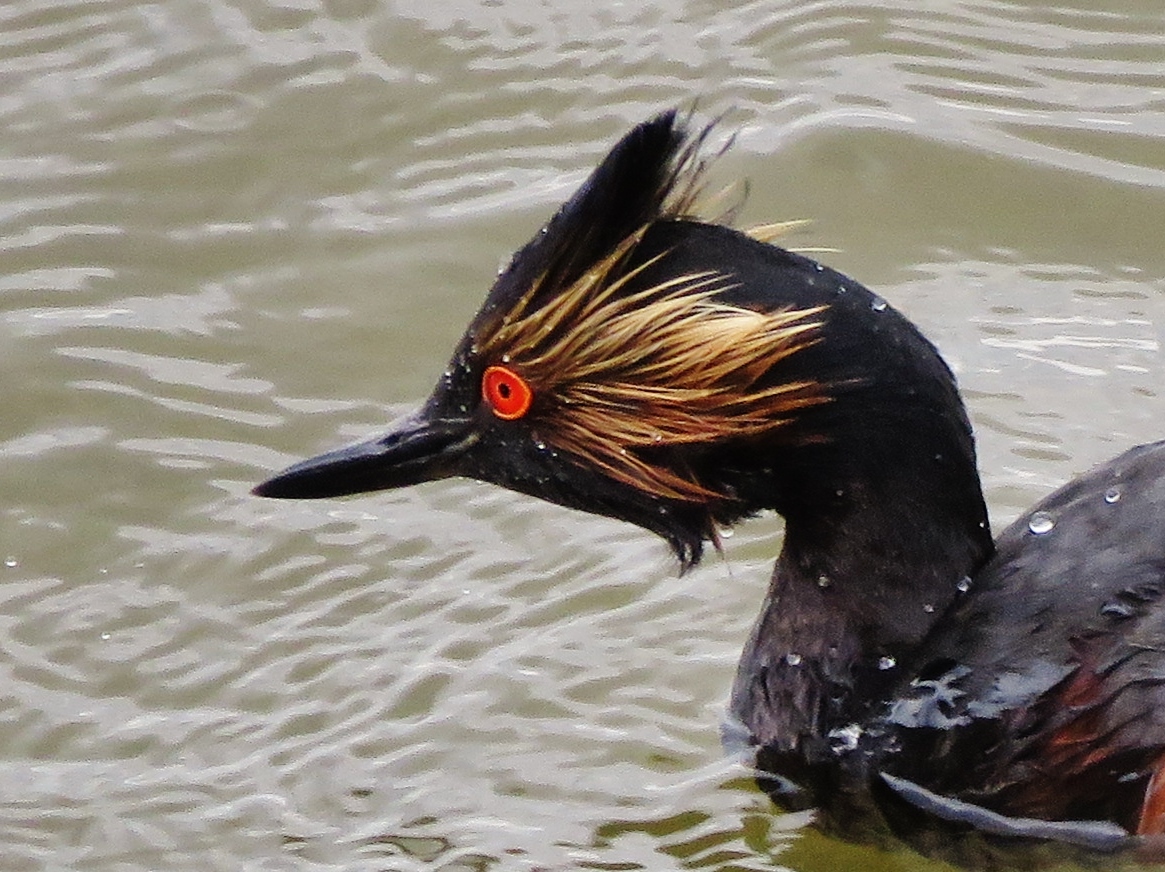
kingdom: Animalia
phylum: Chordata
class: Aves
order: Podicipediformes
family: Podicipedidae
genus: Podiceps
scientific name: Podiceps nigricollis
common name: Black-necked grebe
